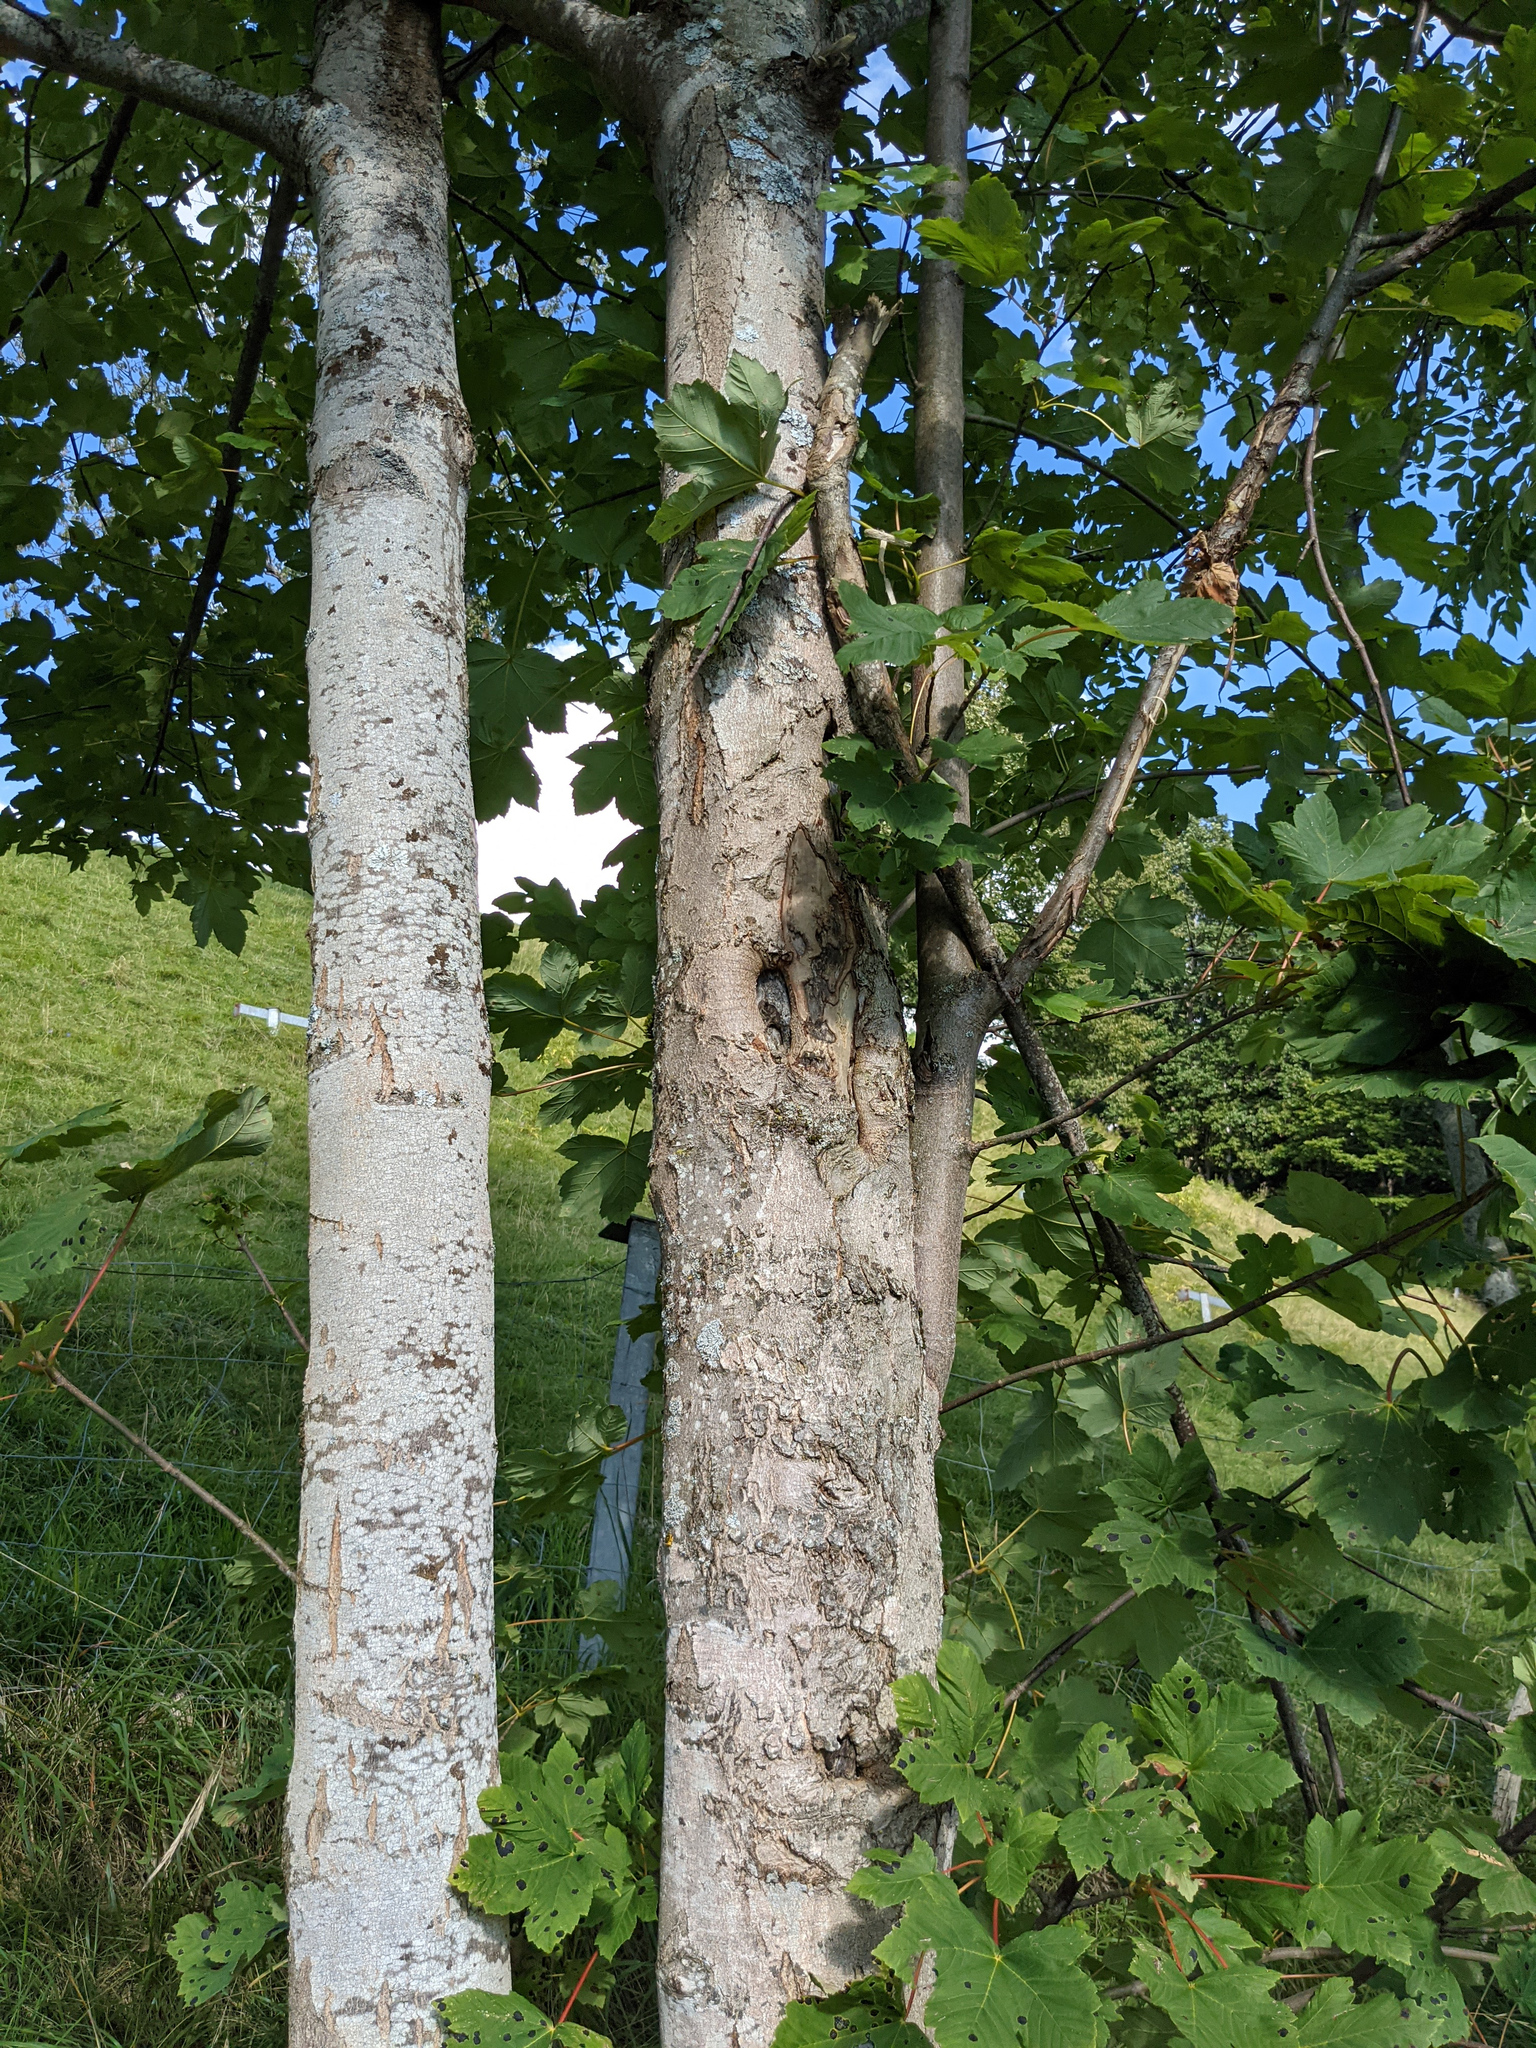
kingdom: Plantae
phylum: Tracheophyta
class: Magnoliopsida
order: Sapindales
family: Sapindaceae
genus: Acer
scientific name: Acer pseudoplatanus
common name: Sycamore
